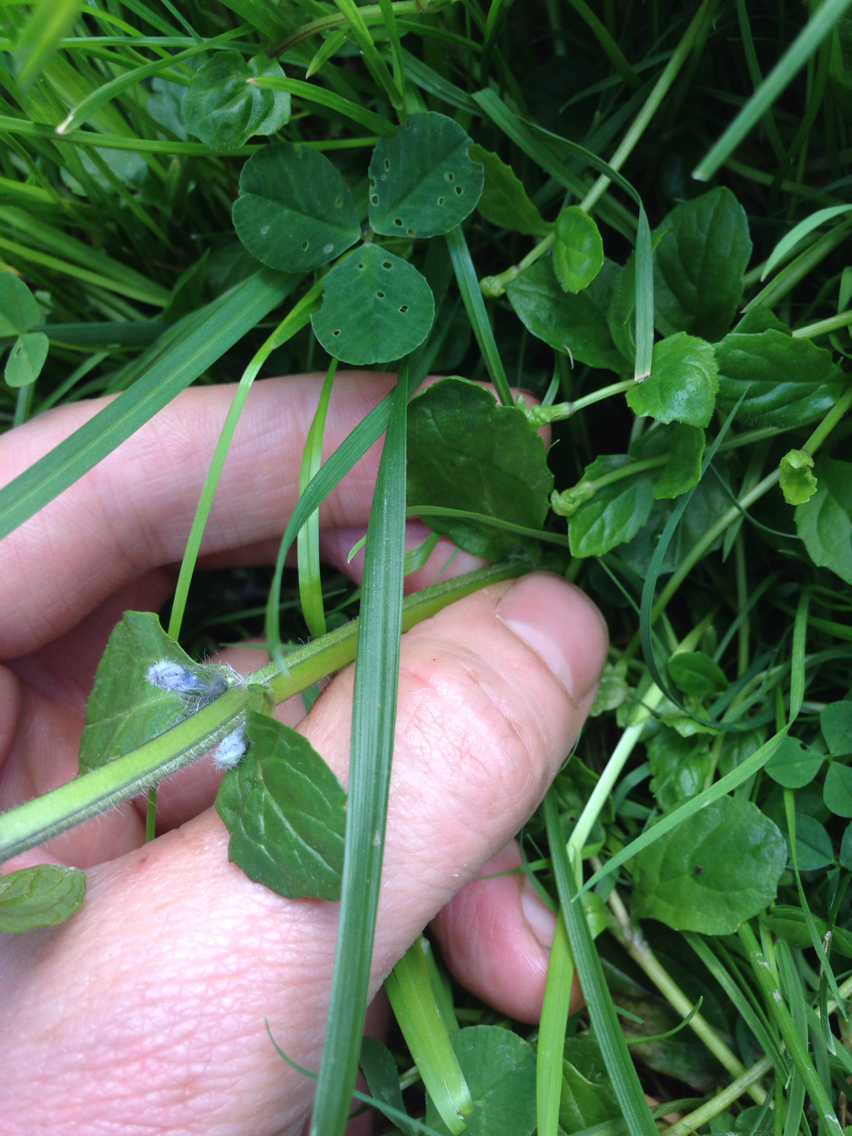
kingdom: Plantae
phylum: Tracheophyta
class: Magnoliopsida
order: Lamiales
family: Lamiaceae
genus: Ajuga
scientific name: Ajuga reptans
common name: Bugle
